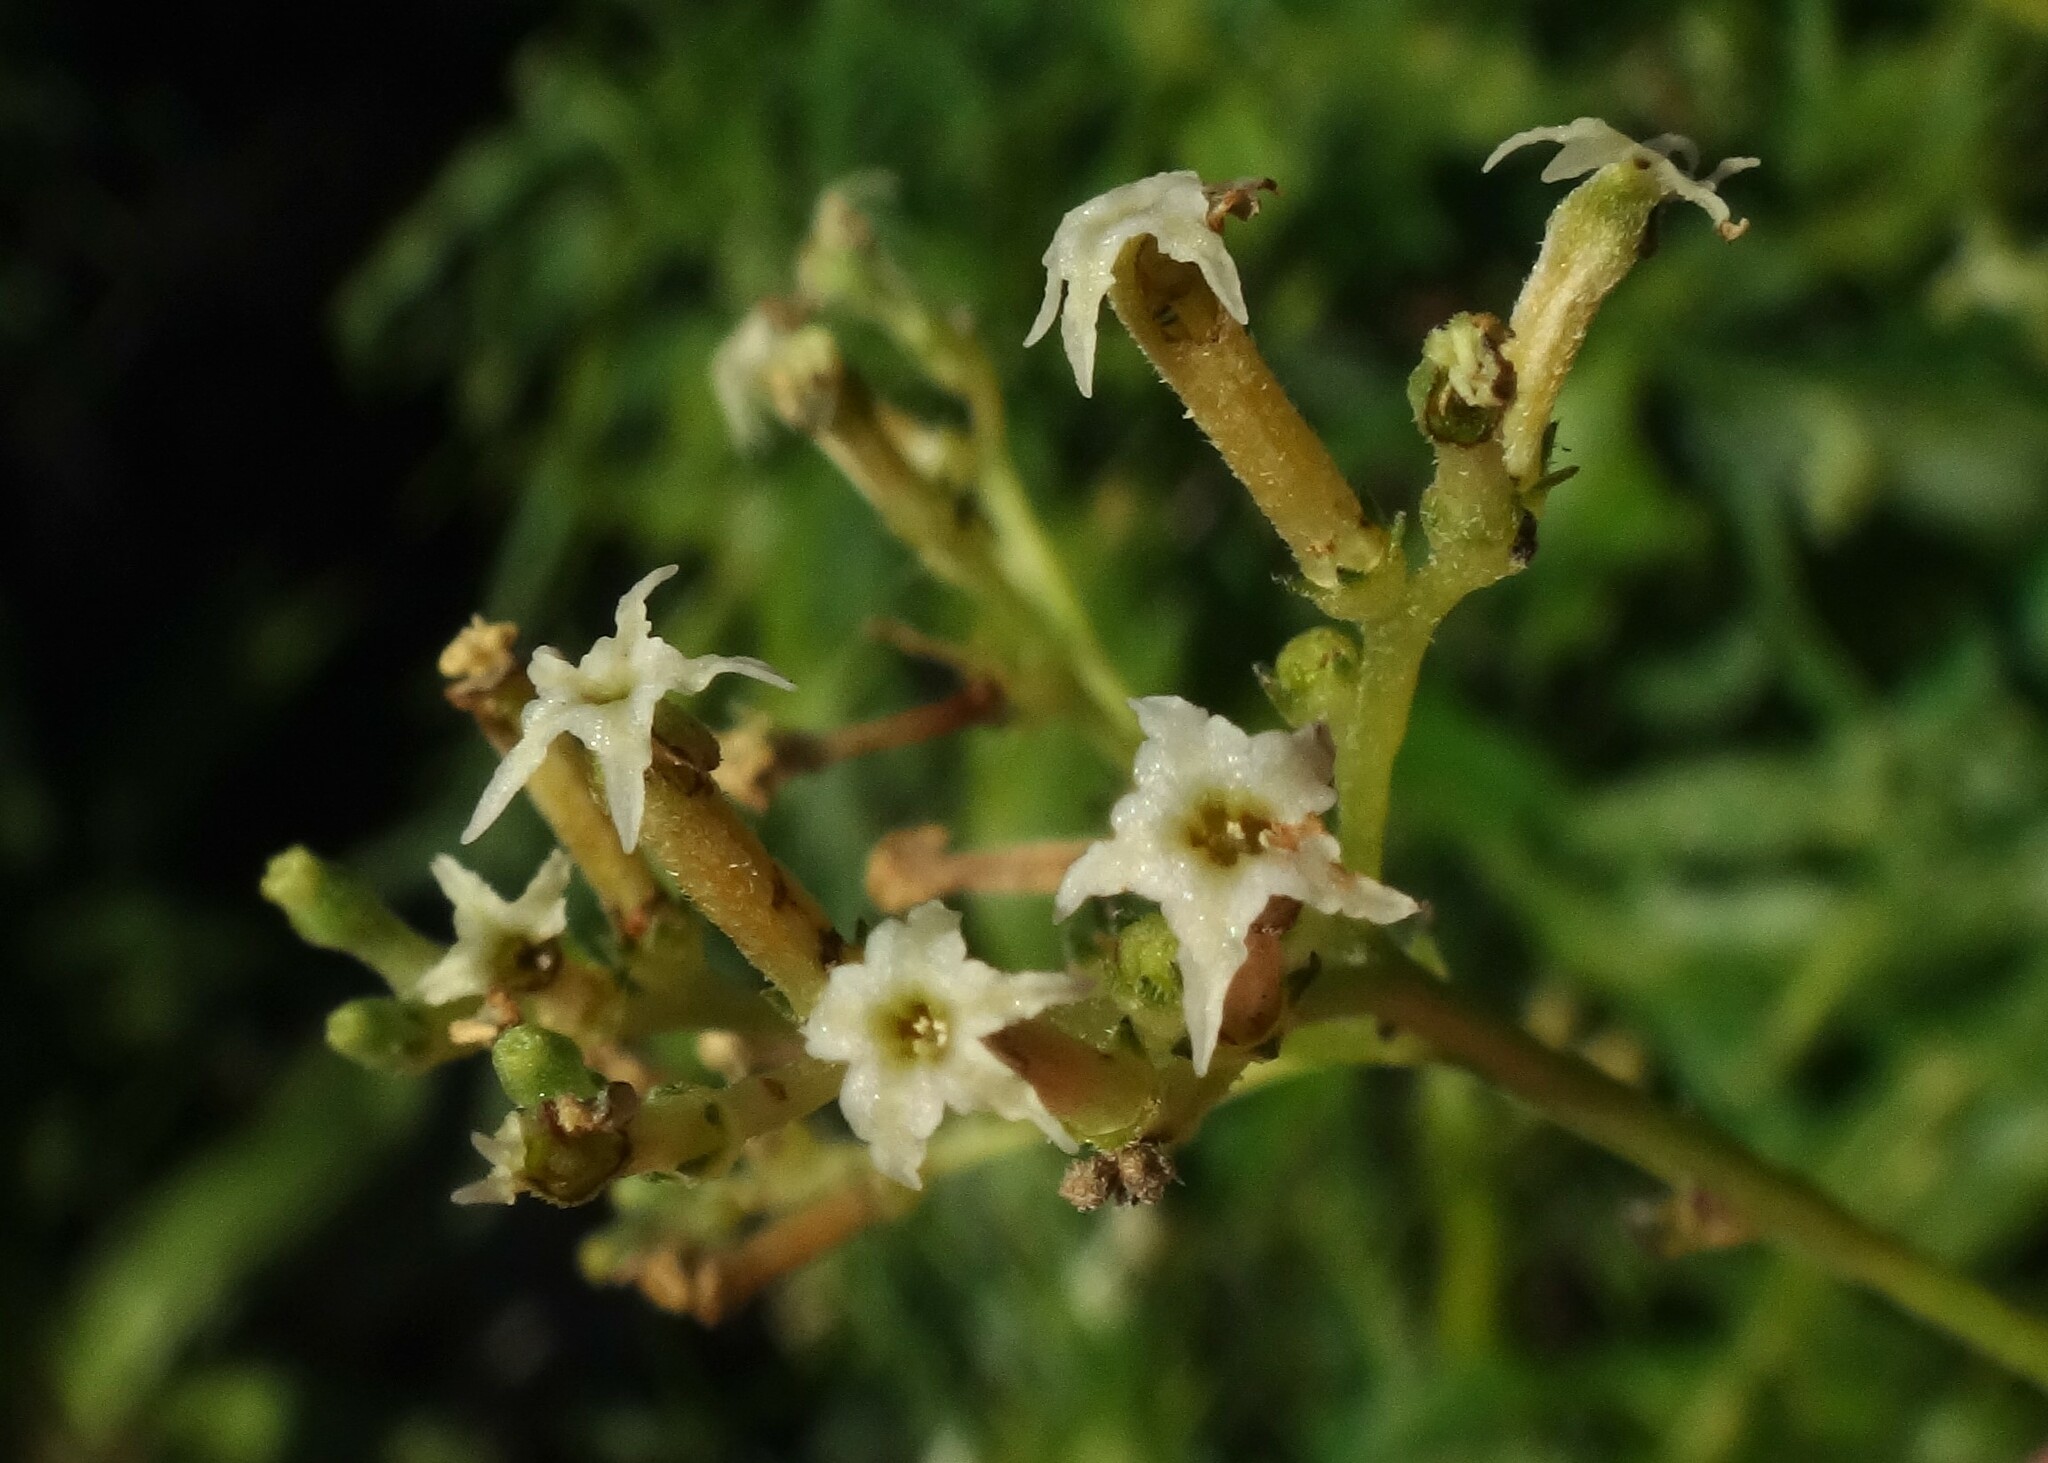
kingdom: Plantae
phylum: Tracheophyta
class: Magnoliopsida
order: Boraginales
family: Heliotropiaceae
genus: Heliotropium
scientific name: Heliotropium messerschmidioides
